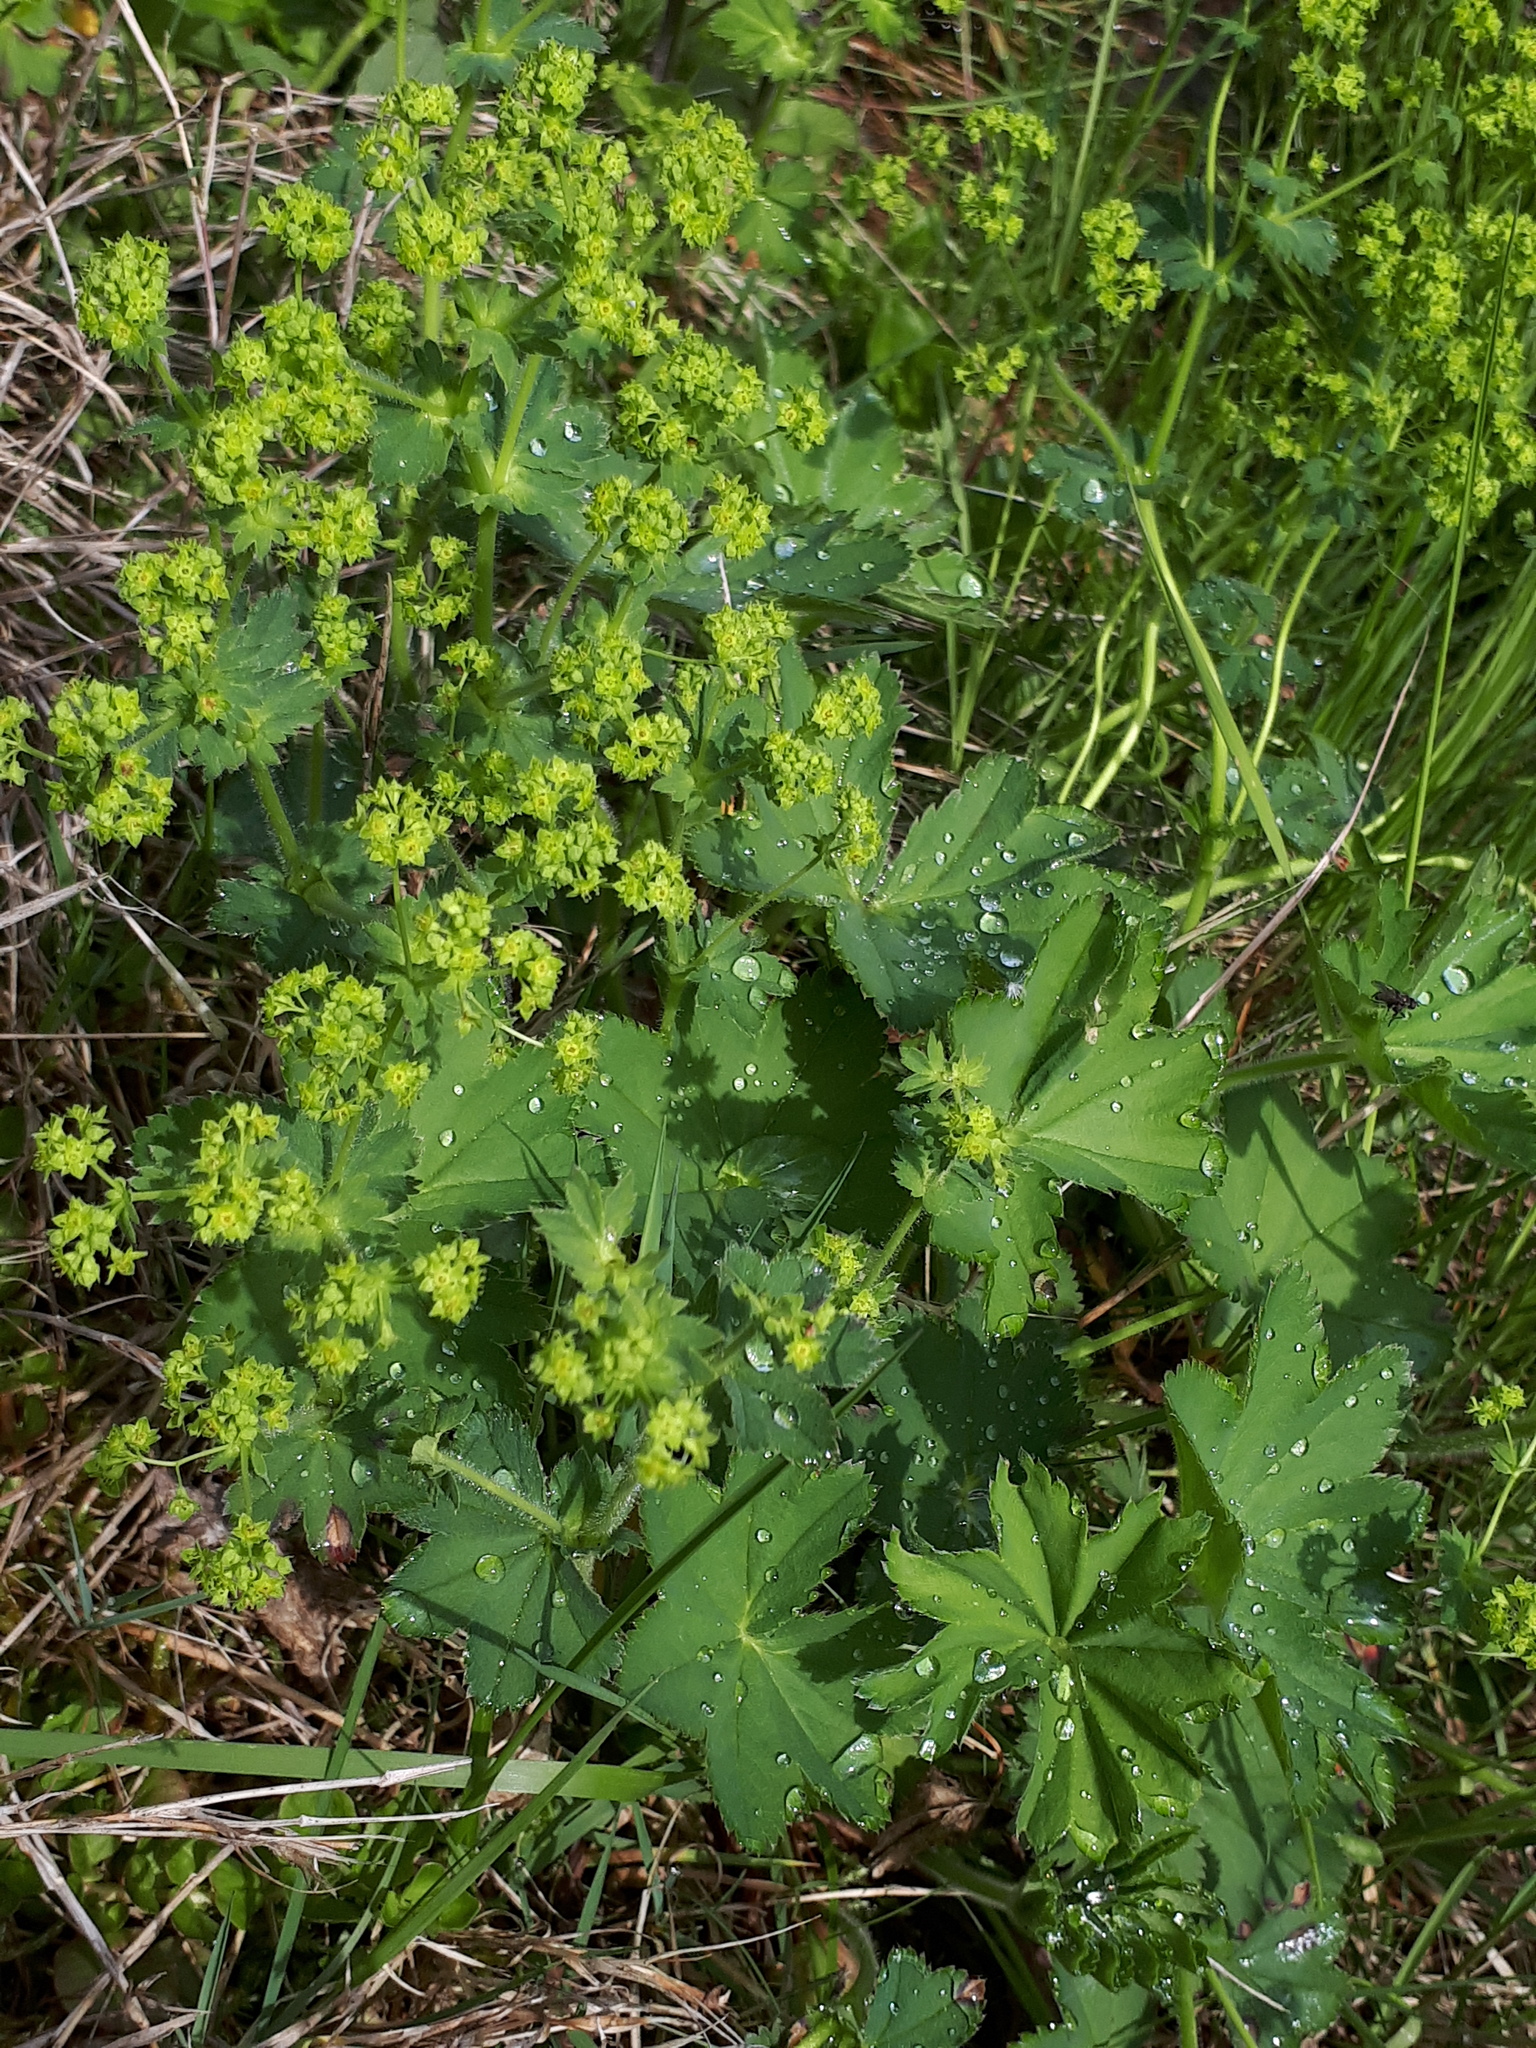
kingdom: Plantae
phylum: Tracheophyta
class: Magnoliopsida
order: Rosales
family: Rosaceae
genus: Alchemilla
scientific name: Alchemilla monticola
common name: Hairy lady's mantle
